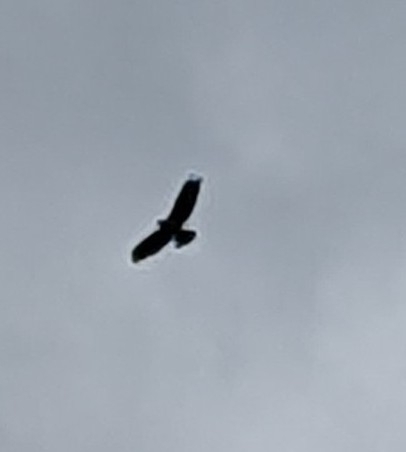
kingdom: Animalia
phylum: Chordata
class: Aves
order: Accipitriformes
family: Accipitridae
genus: Buteo
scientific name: Buteo buteo
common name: Common buzzard
